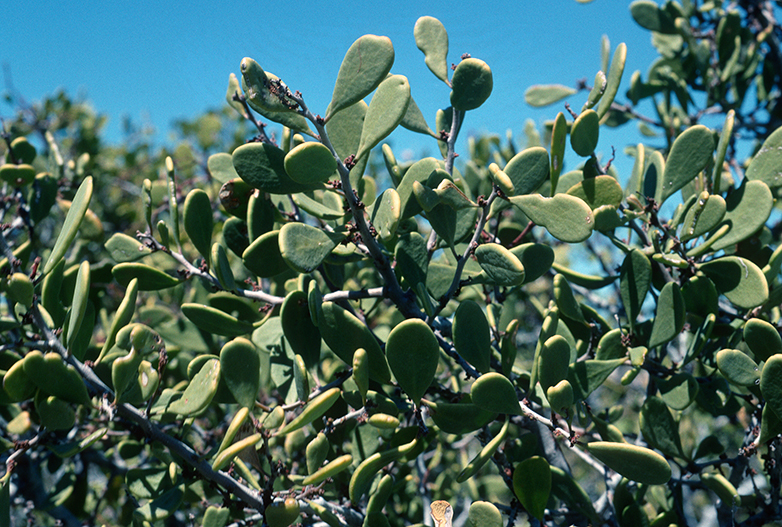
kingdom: Plantae
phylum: Tracheophyta
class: Magnoliopsida
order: Celastrales
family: Celastraceae
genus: Tricerma
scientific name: Tricerma phyllanthoides
